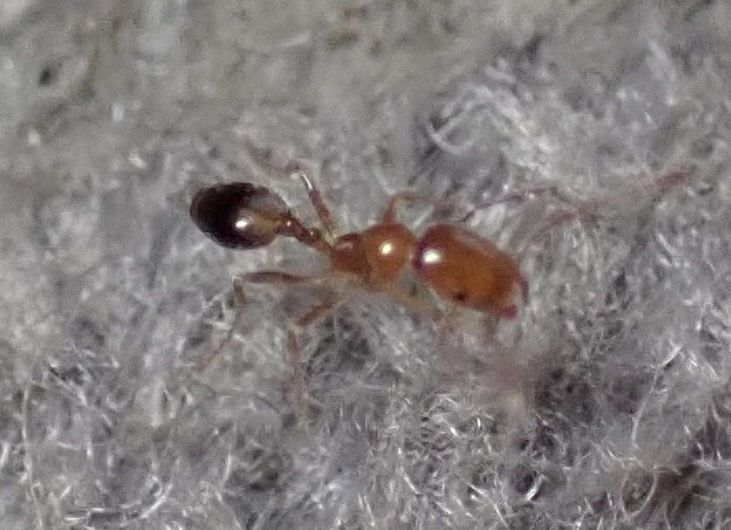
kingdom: Animalia
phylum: Arthropoda
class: Insecta
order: Hymenoptera
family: Formicidae
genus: Monomorium
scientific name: Monomorium destructor
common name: Destructive trailing ant
